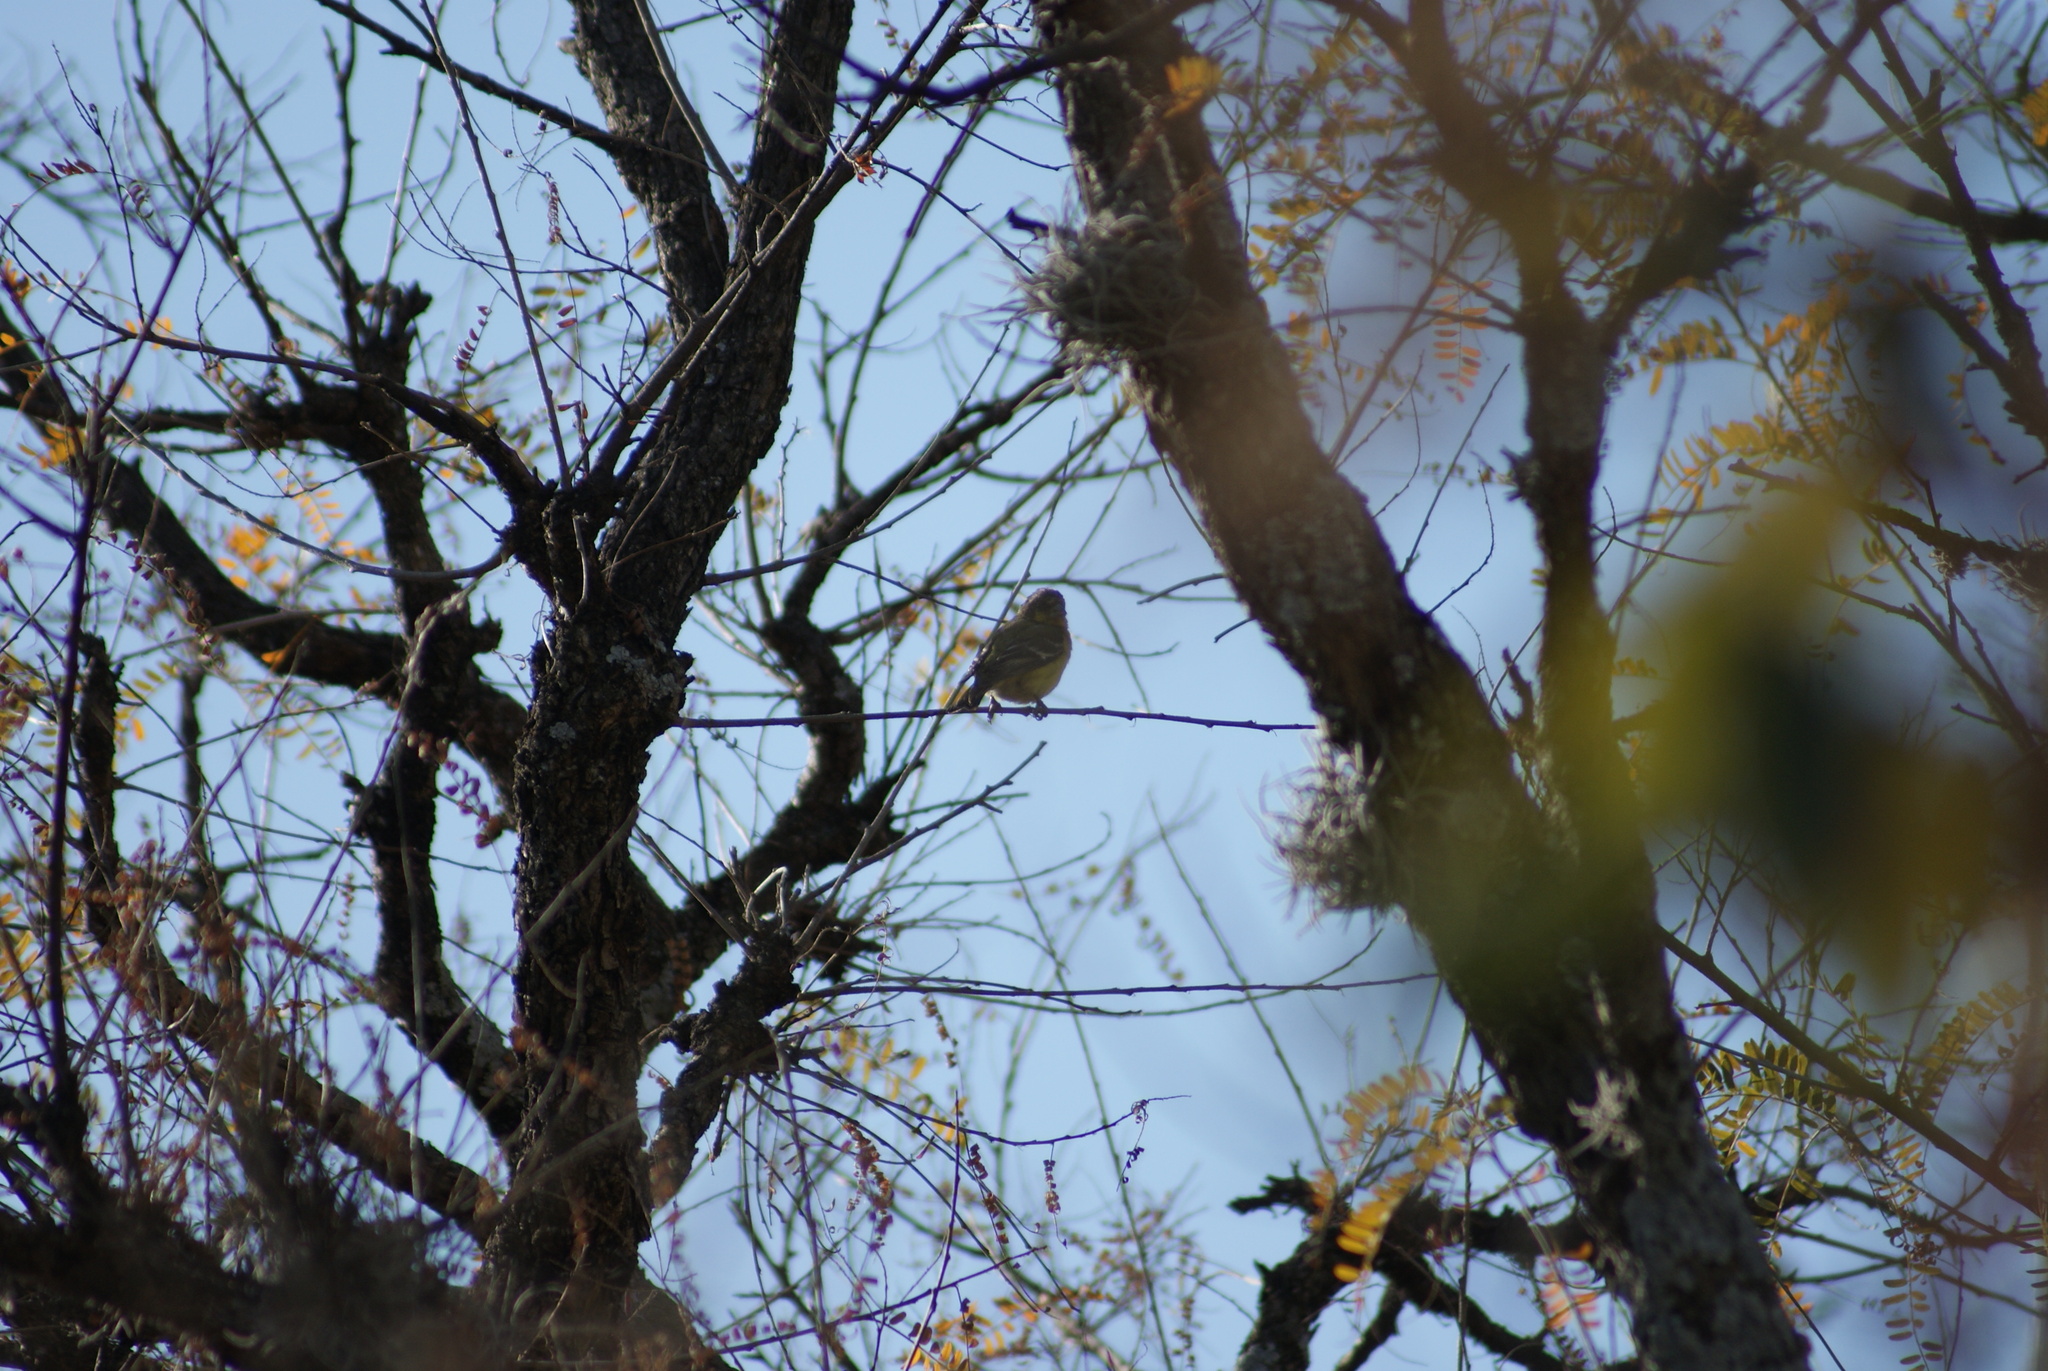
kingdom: Animalia
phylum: Chordata
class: Aves
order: Passeriformes
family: Fringillidae
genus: Spinus
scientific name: Spinus psaltria
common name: Lesser goldfinch
